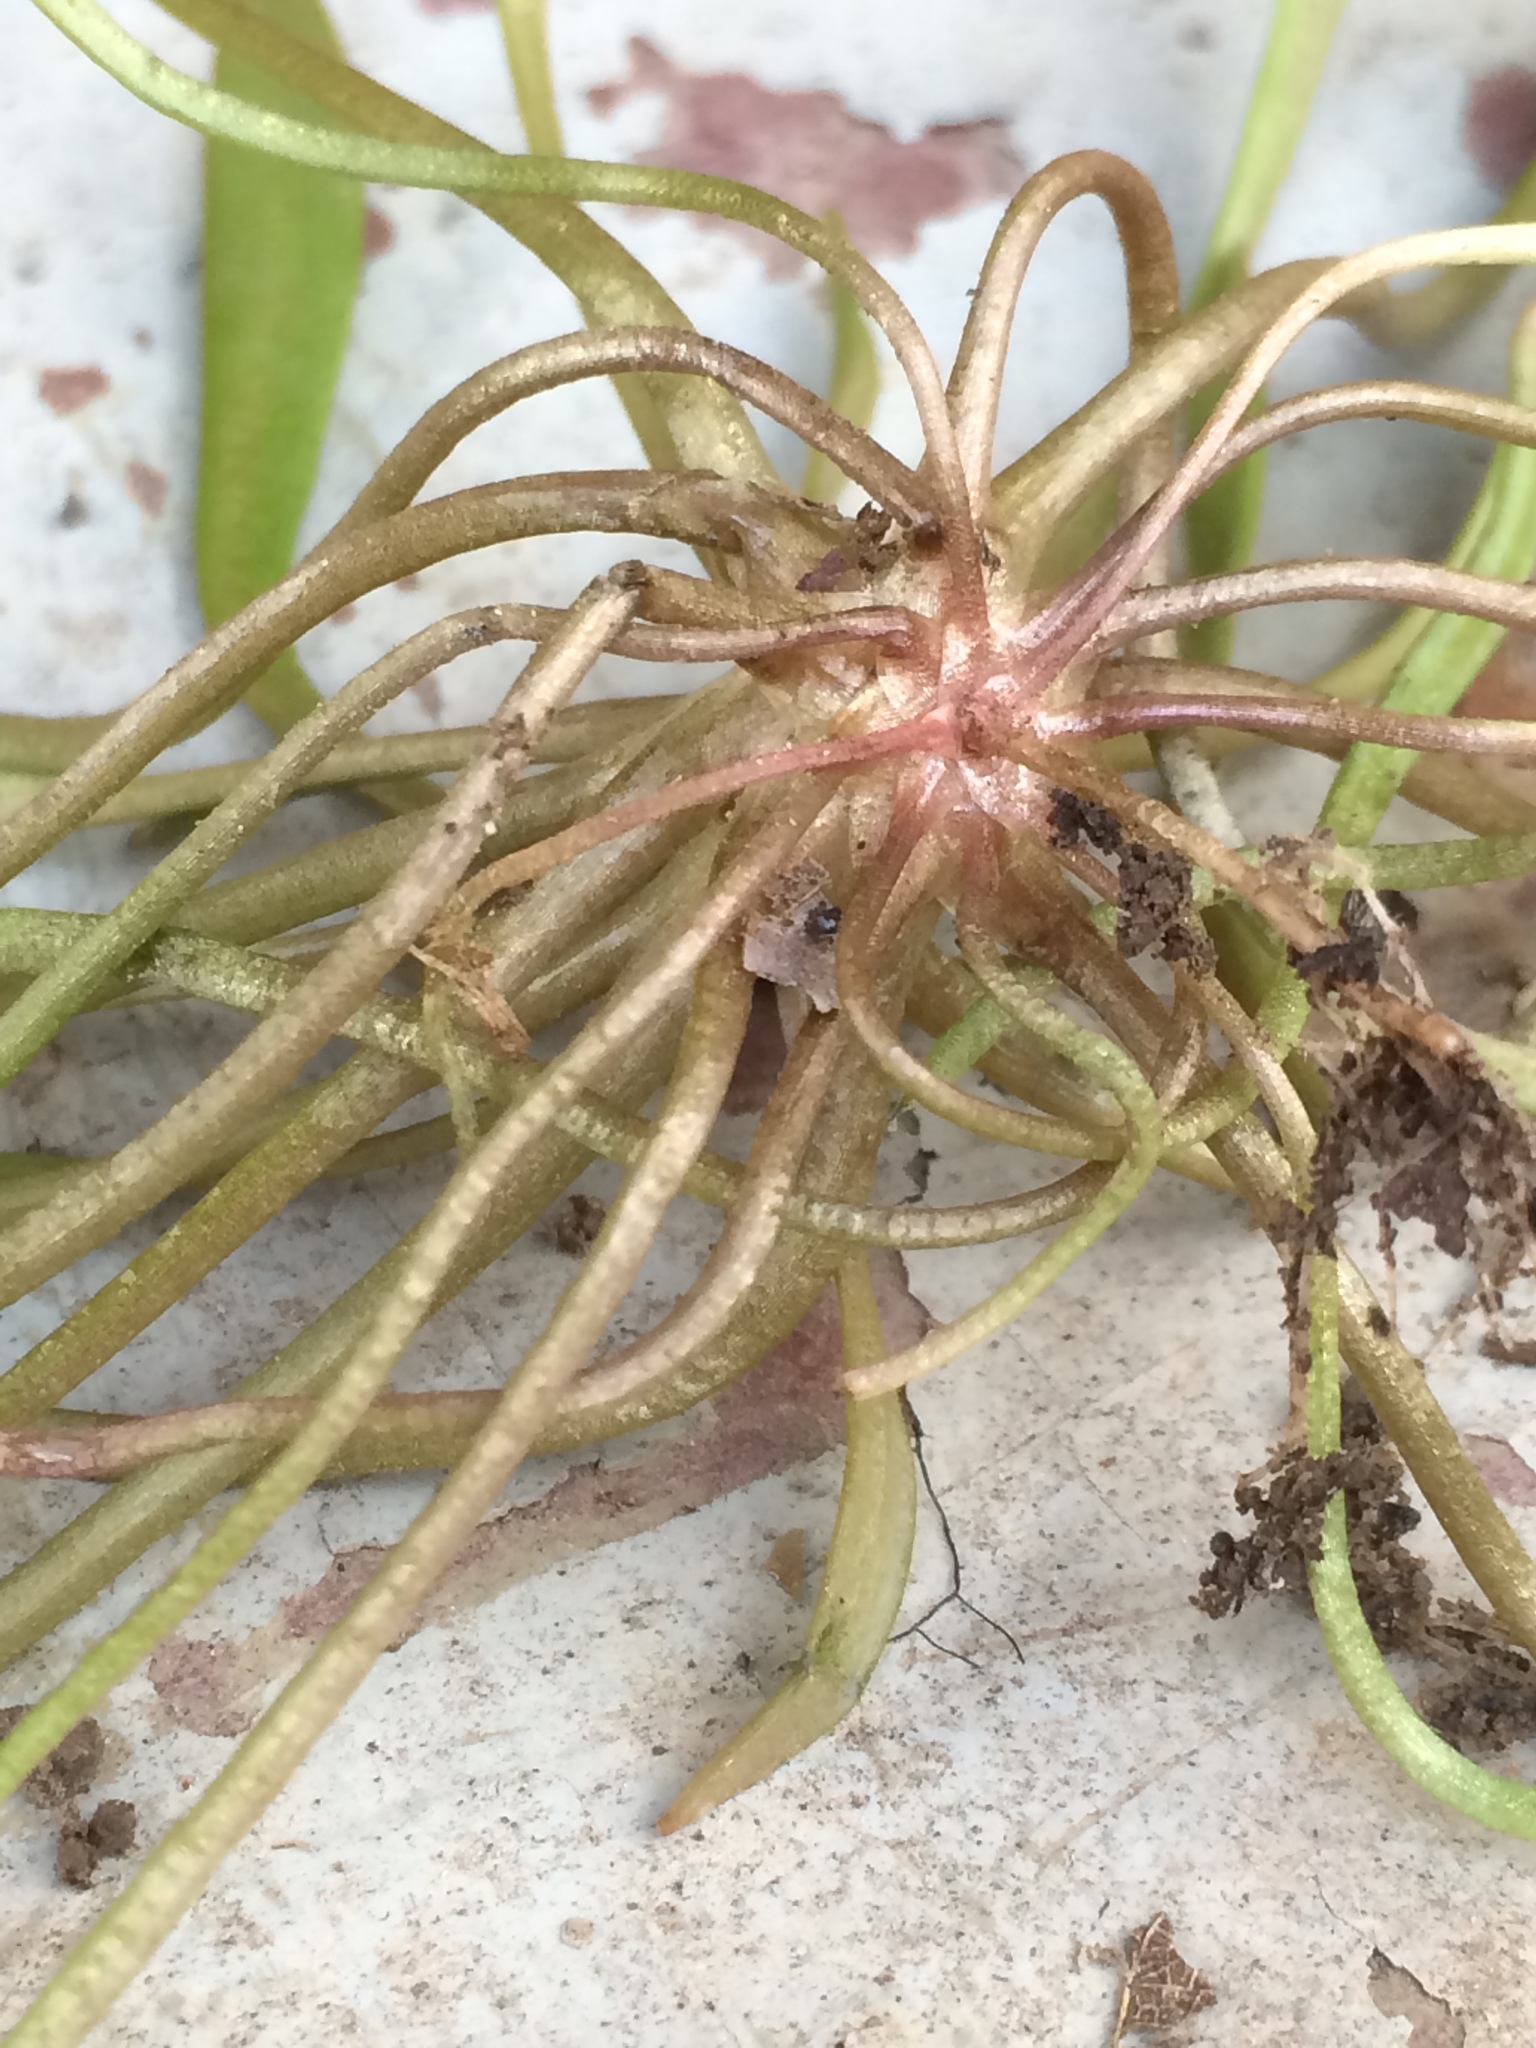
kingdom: Plantae
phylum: Tracheophyta
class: Magnoliopsida
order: Caryophyllales
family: Montiaceae
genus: Claytonia
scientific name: Claytonia parviflora
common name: Indian-lettuce
